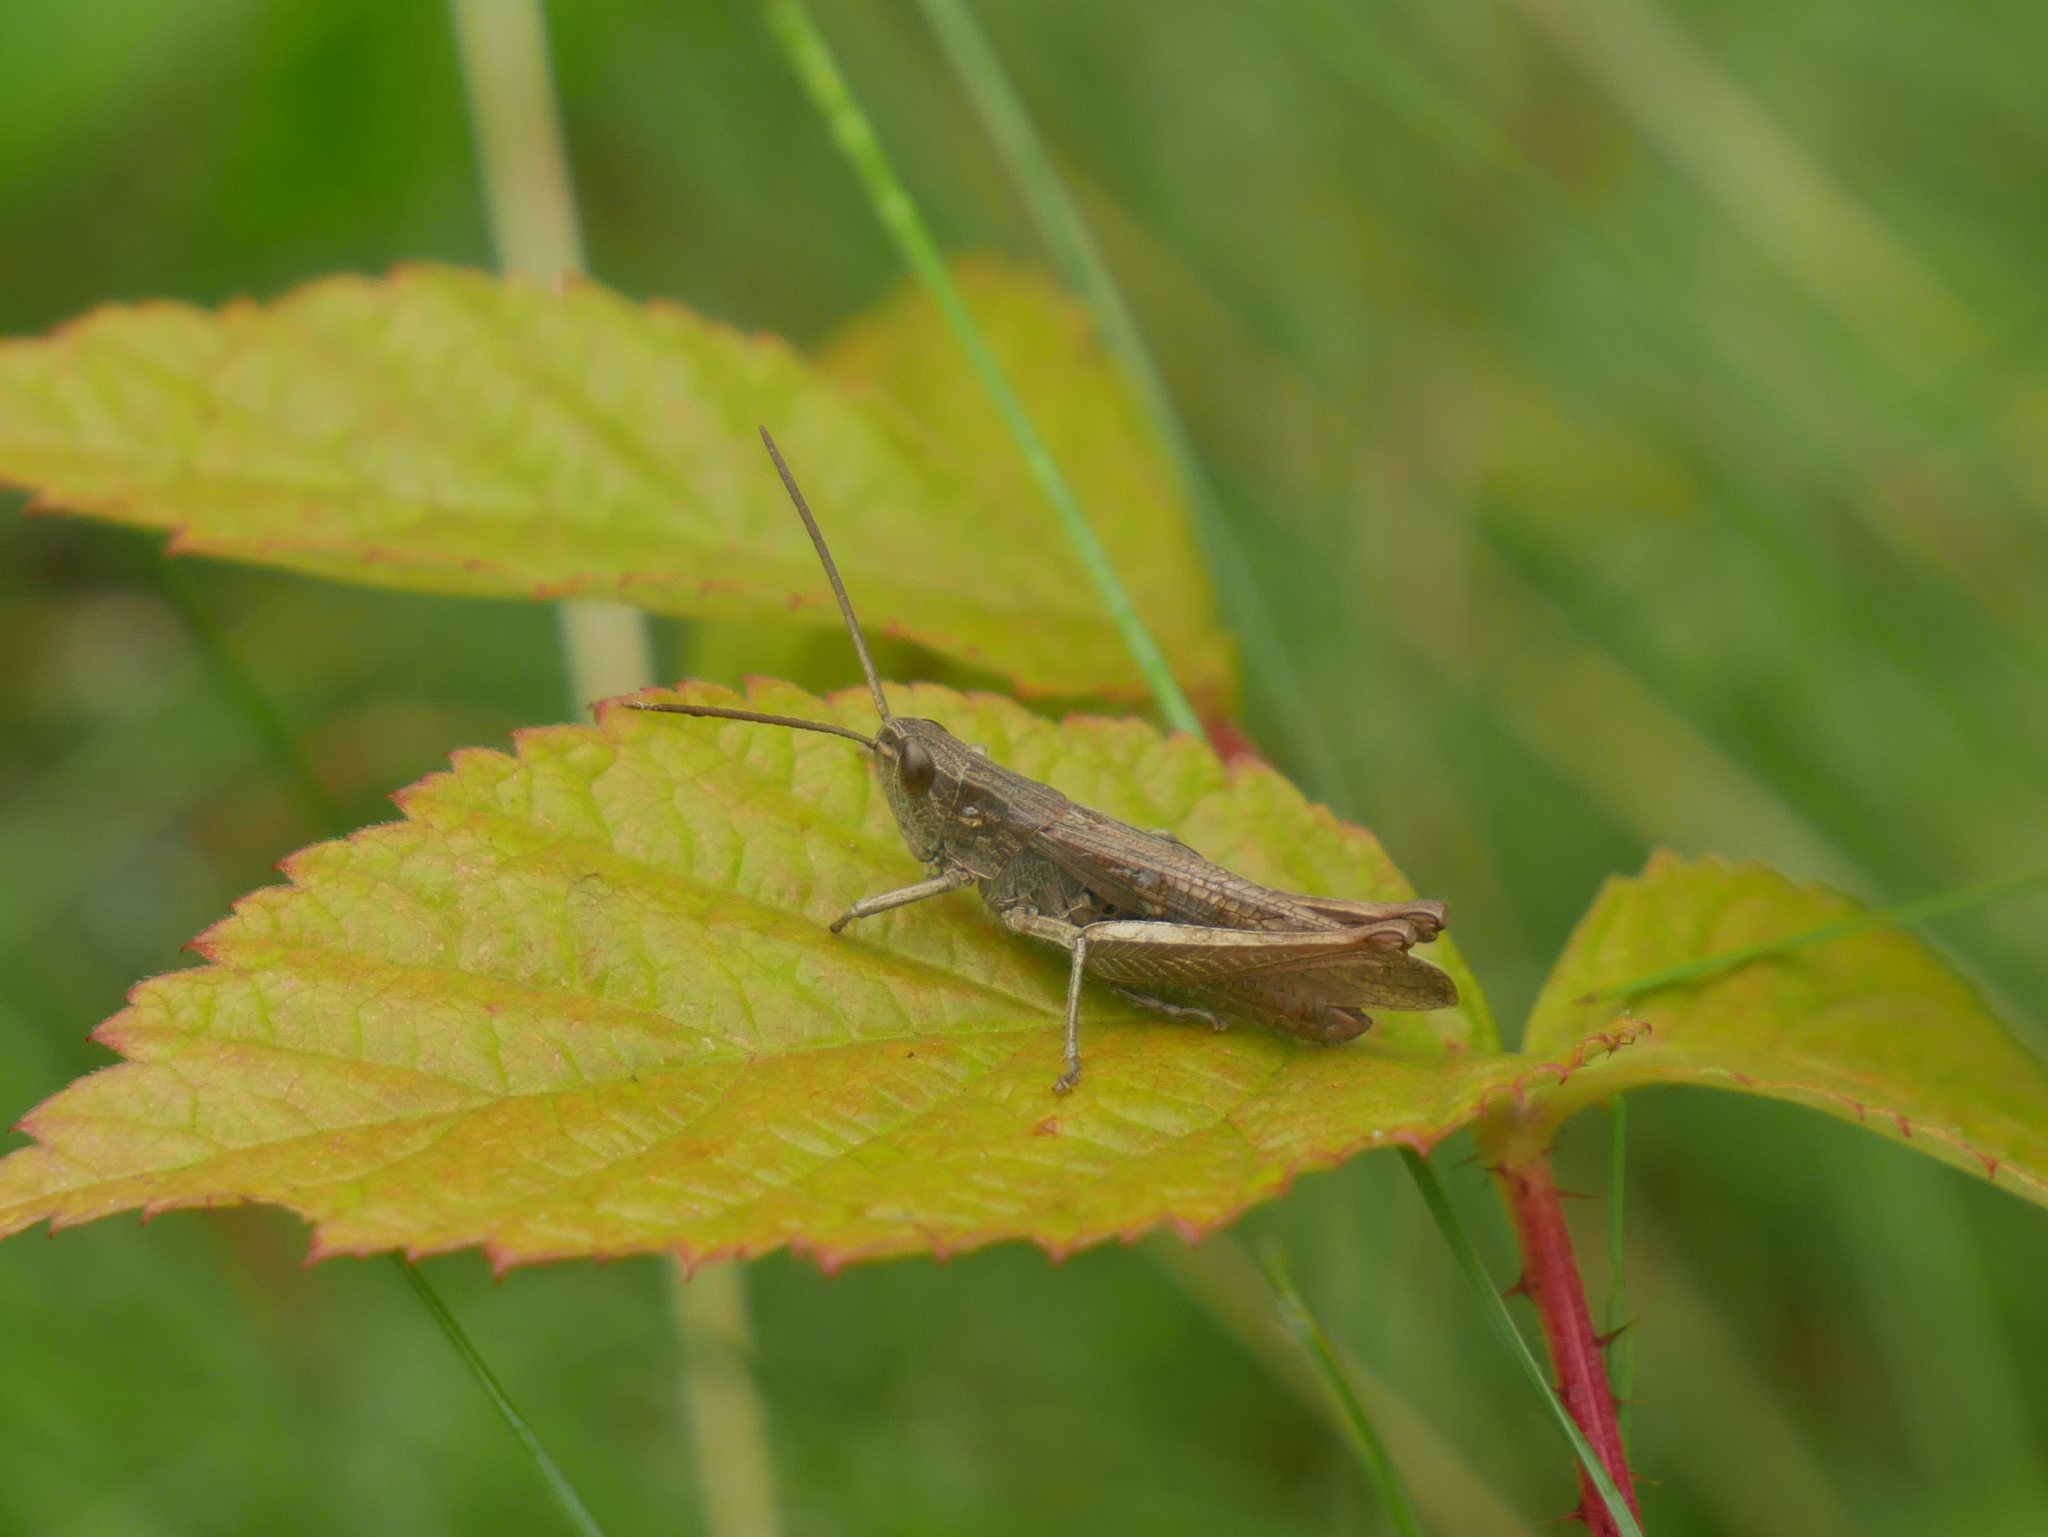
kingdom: Animalia
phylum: Arthropoda
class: Insecta
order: Orthoptera
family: Acrididae
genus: Chorthippus
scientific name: Chorthippus dorsatus
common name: Steppe grasshopper
